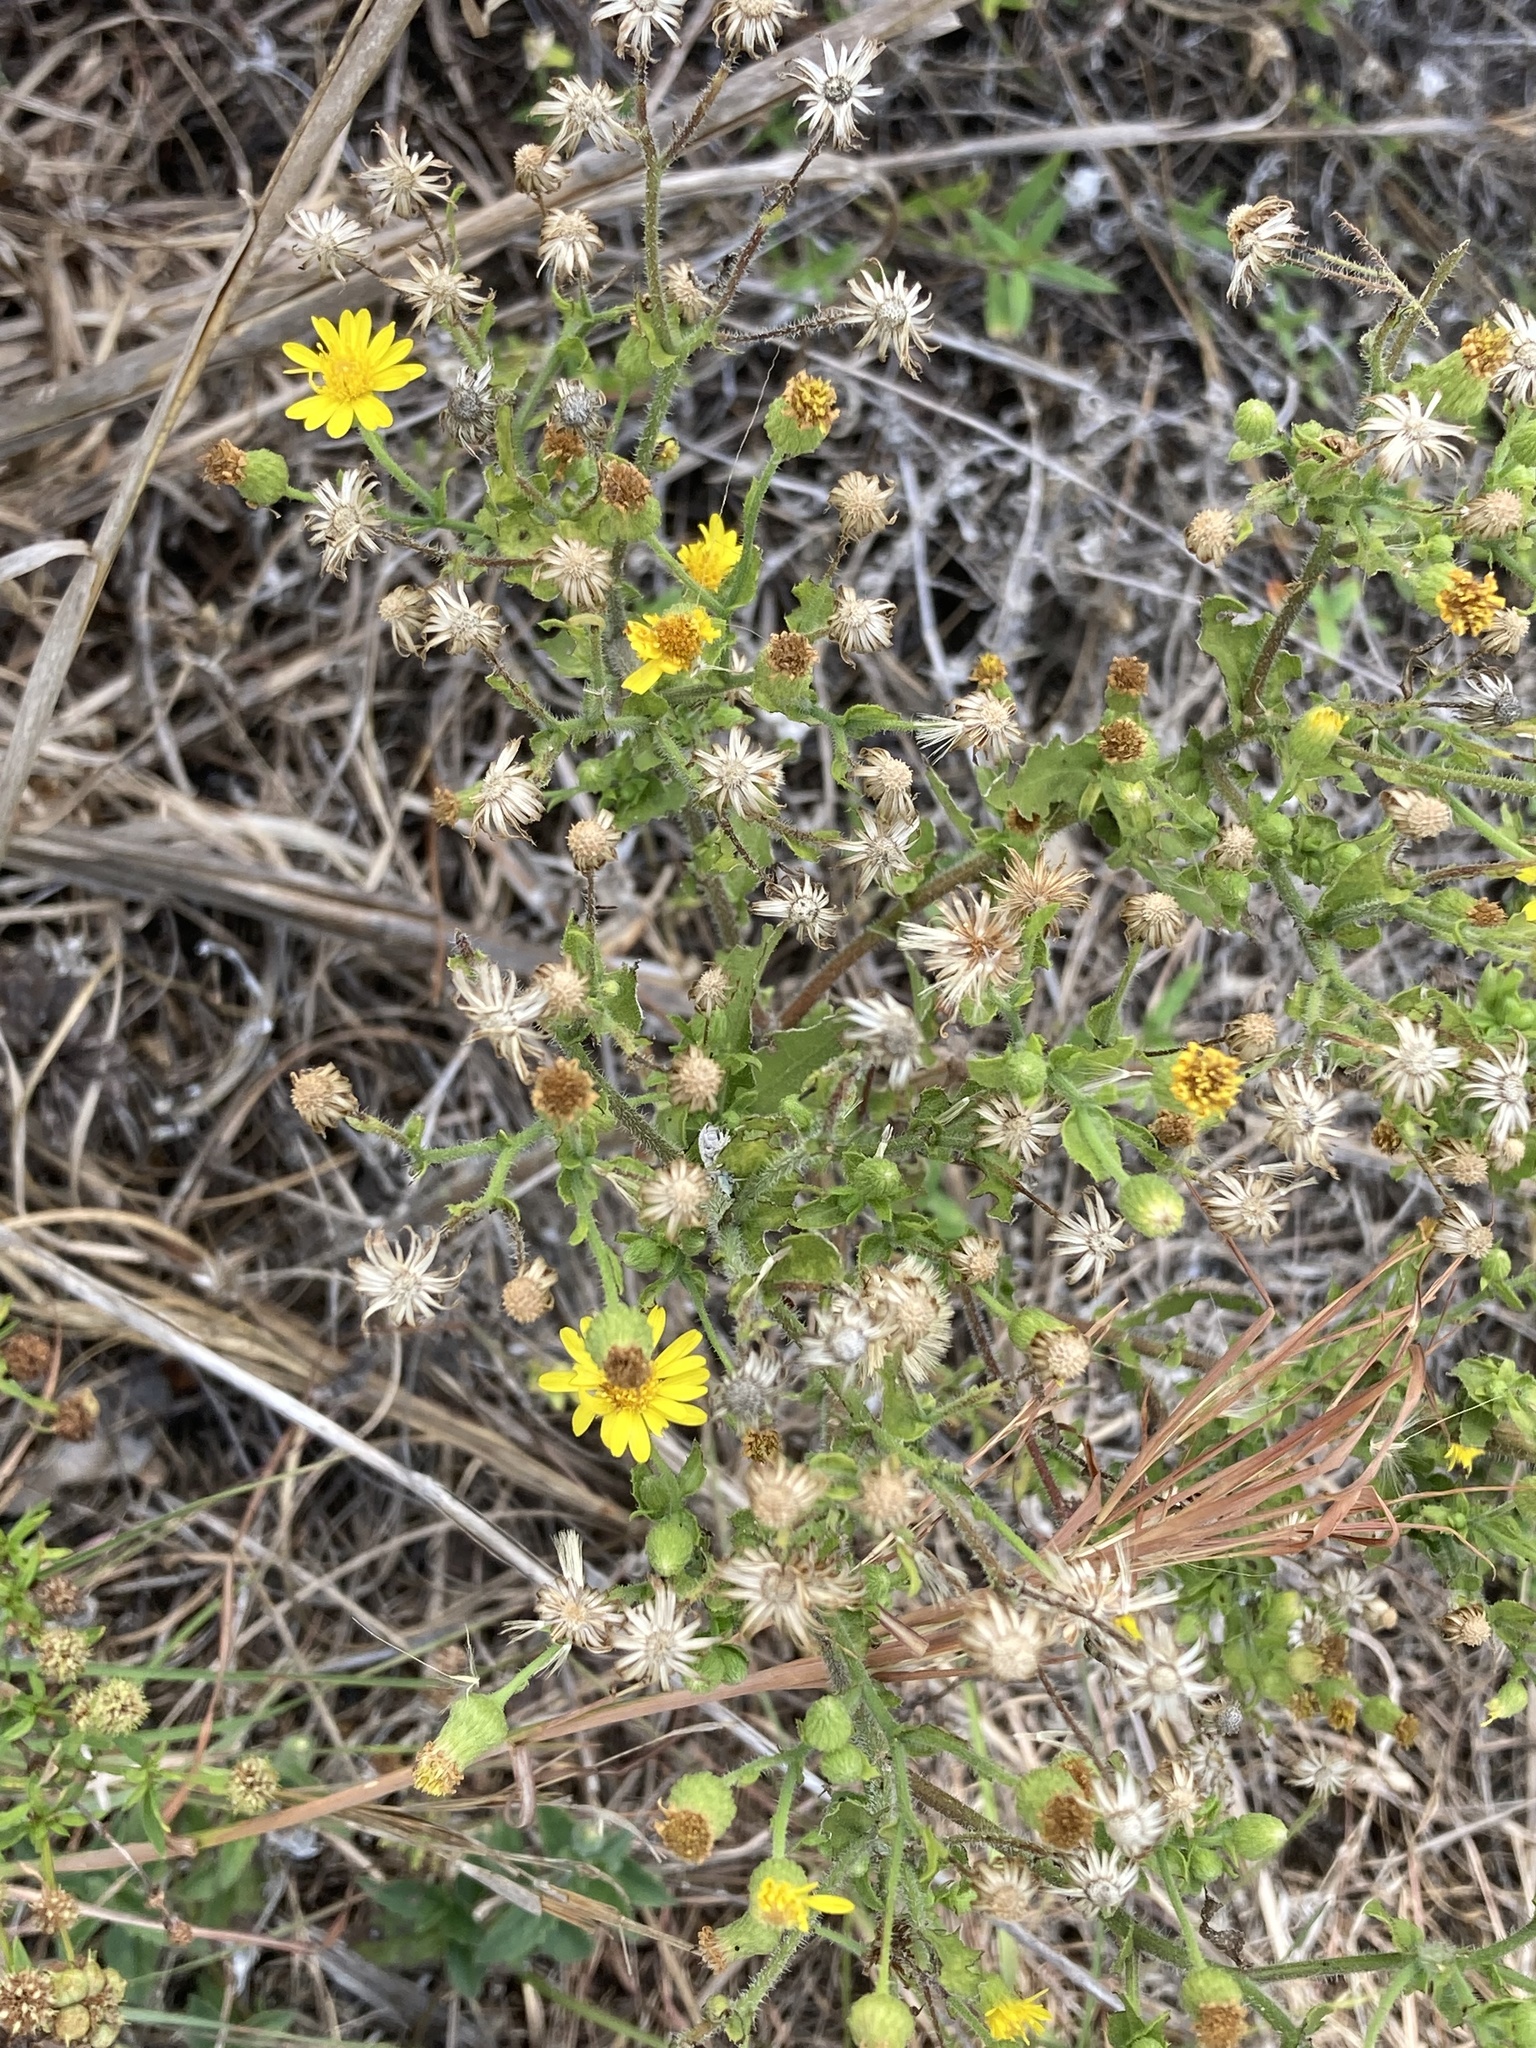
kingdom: Plantae
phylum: Tracheophyta
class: Magnoliopsida
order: Asterales
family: Asteraceae
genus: Heterotheca
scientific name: Heterotheca subaxillaris
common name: Camphorweed
